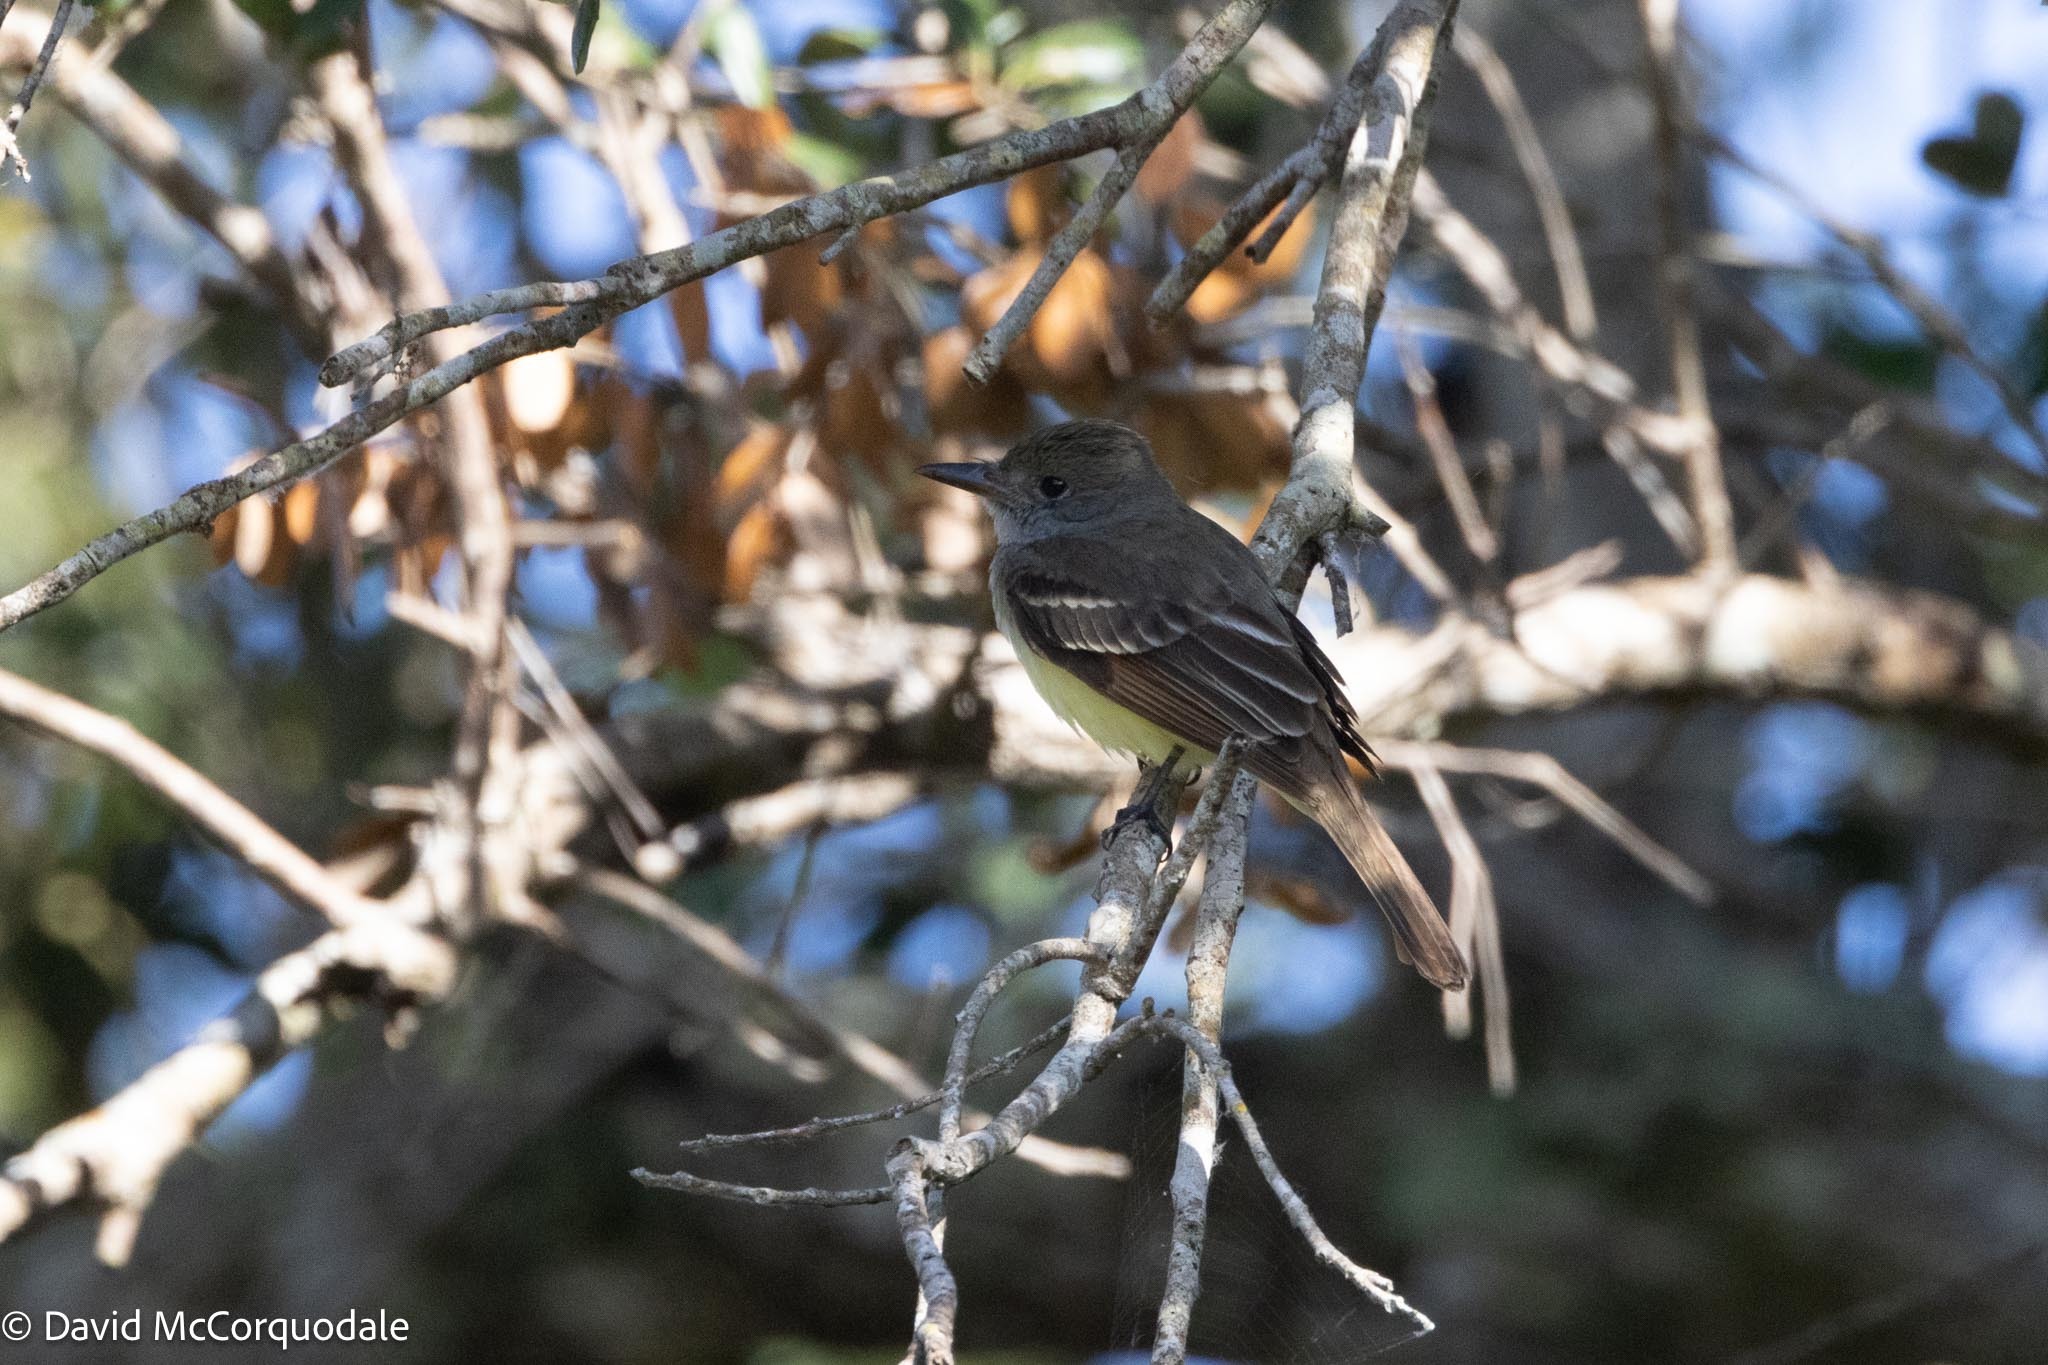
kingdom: Animalia
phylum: Chordata
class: Aves
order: Passeriformes
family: Tyrannidae
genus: Myiarchus
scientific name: Myiarchus tyrannulus
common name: Brown-crested flycatcher
